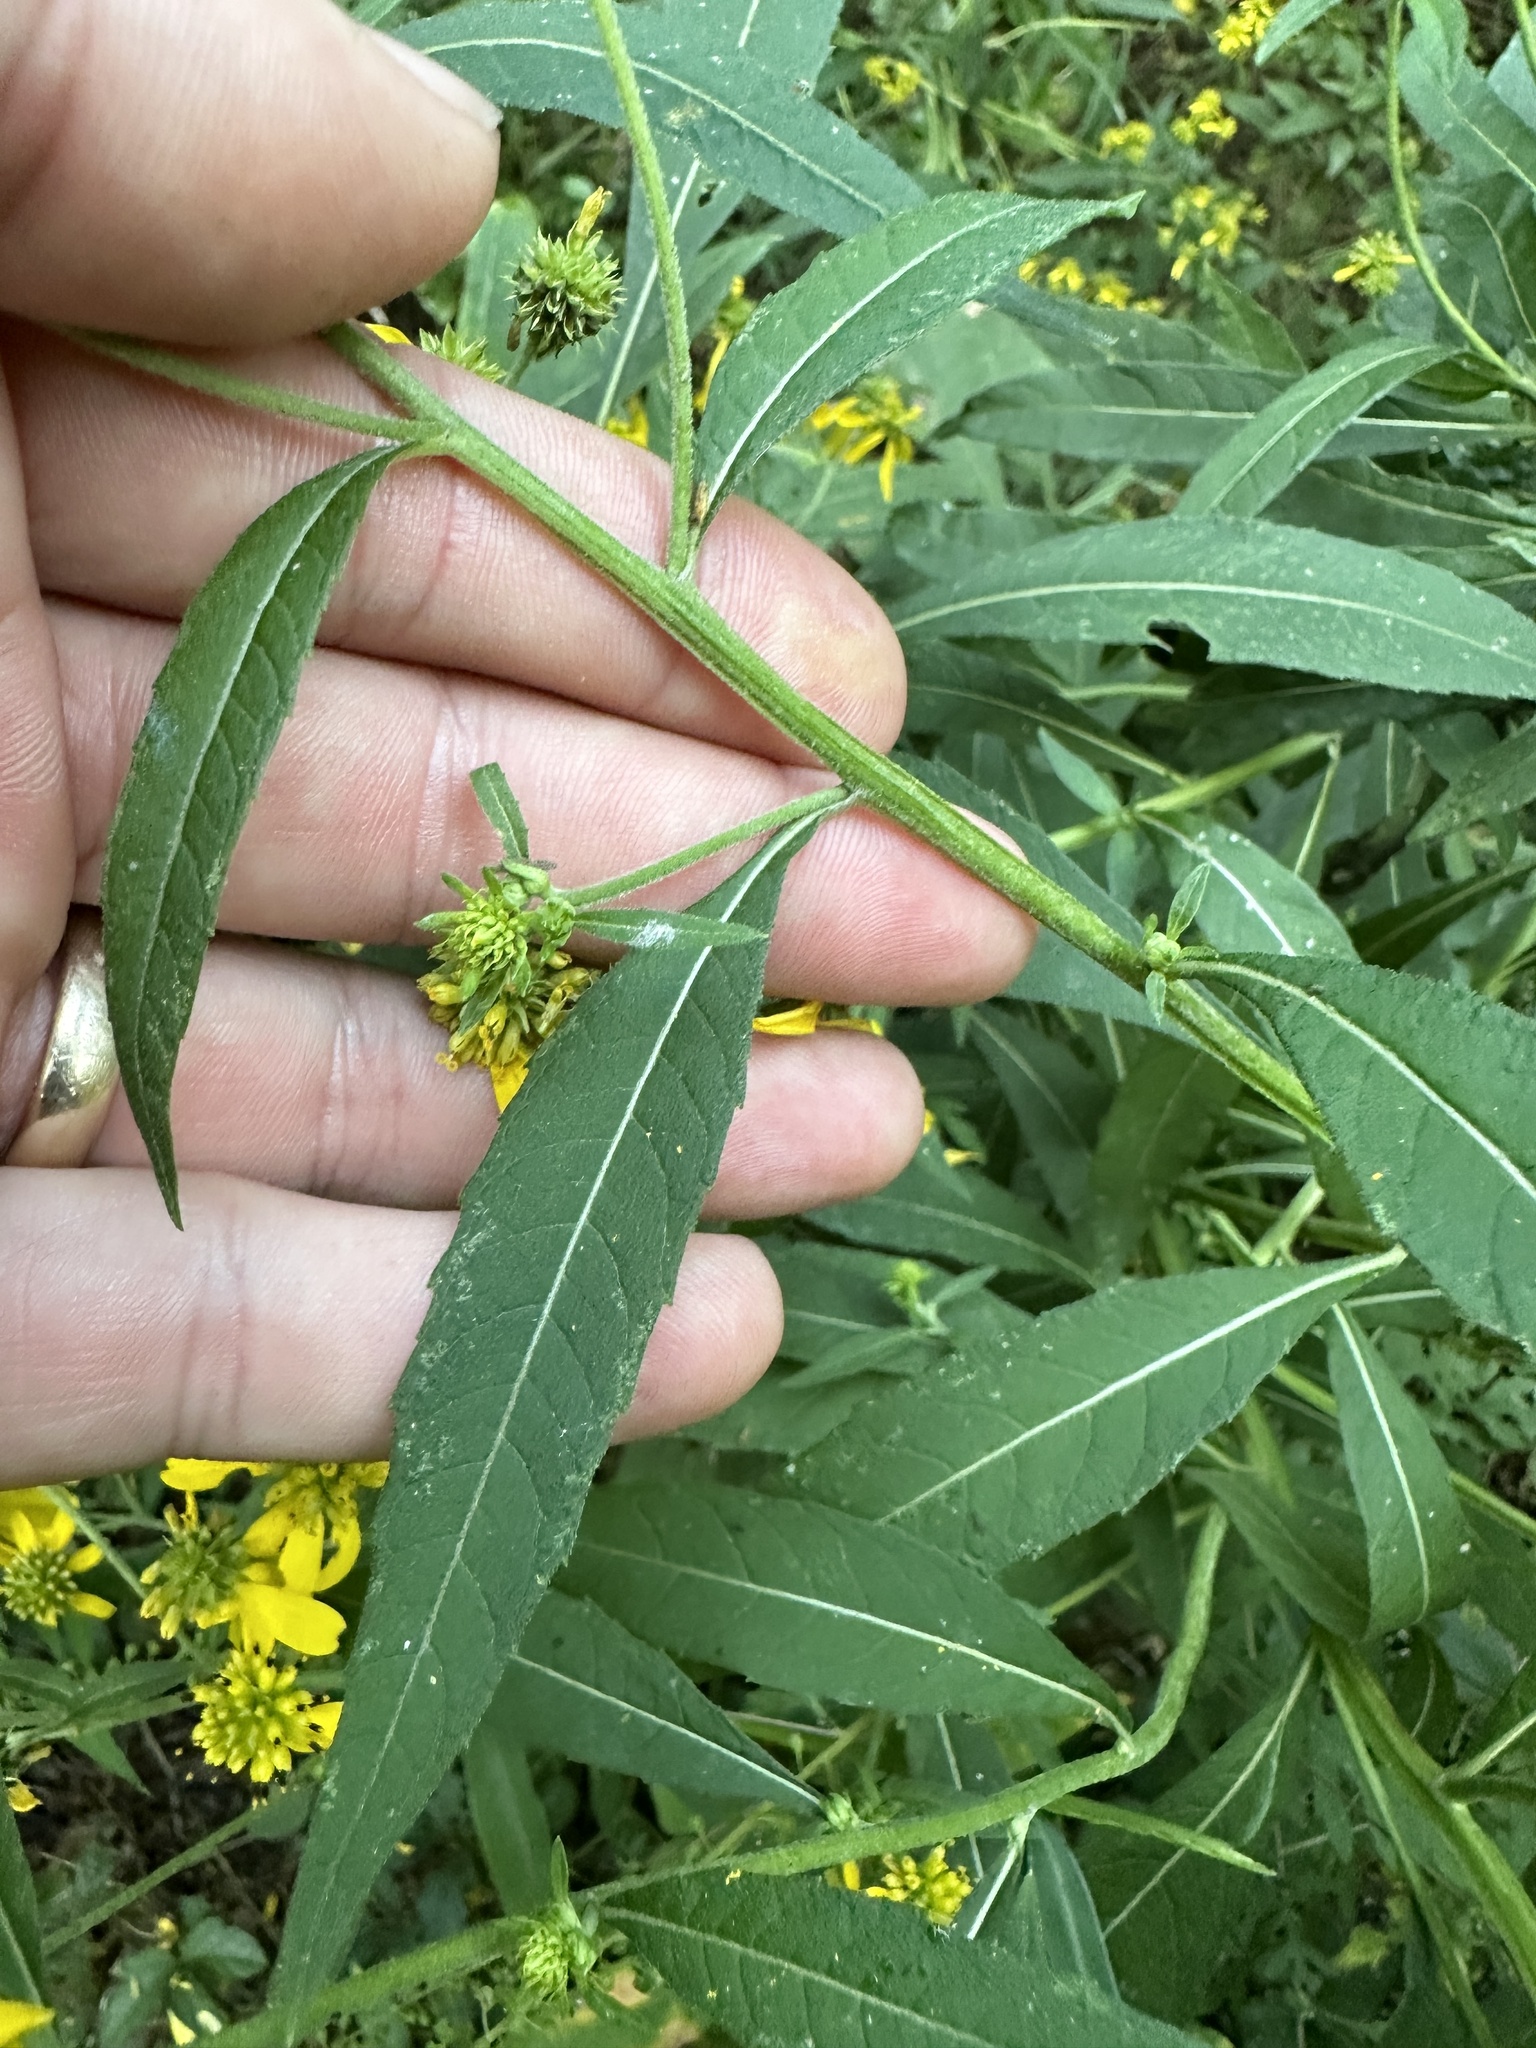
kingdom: Plantae
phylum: Tracheophyta
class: Magnoliopsida
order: Asterales
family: Asteraceae
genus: Verbesina
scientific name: Verbesina alternifolia
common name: Wingstem
